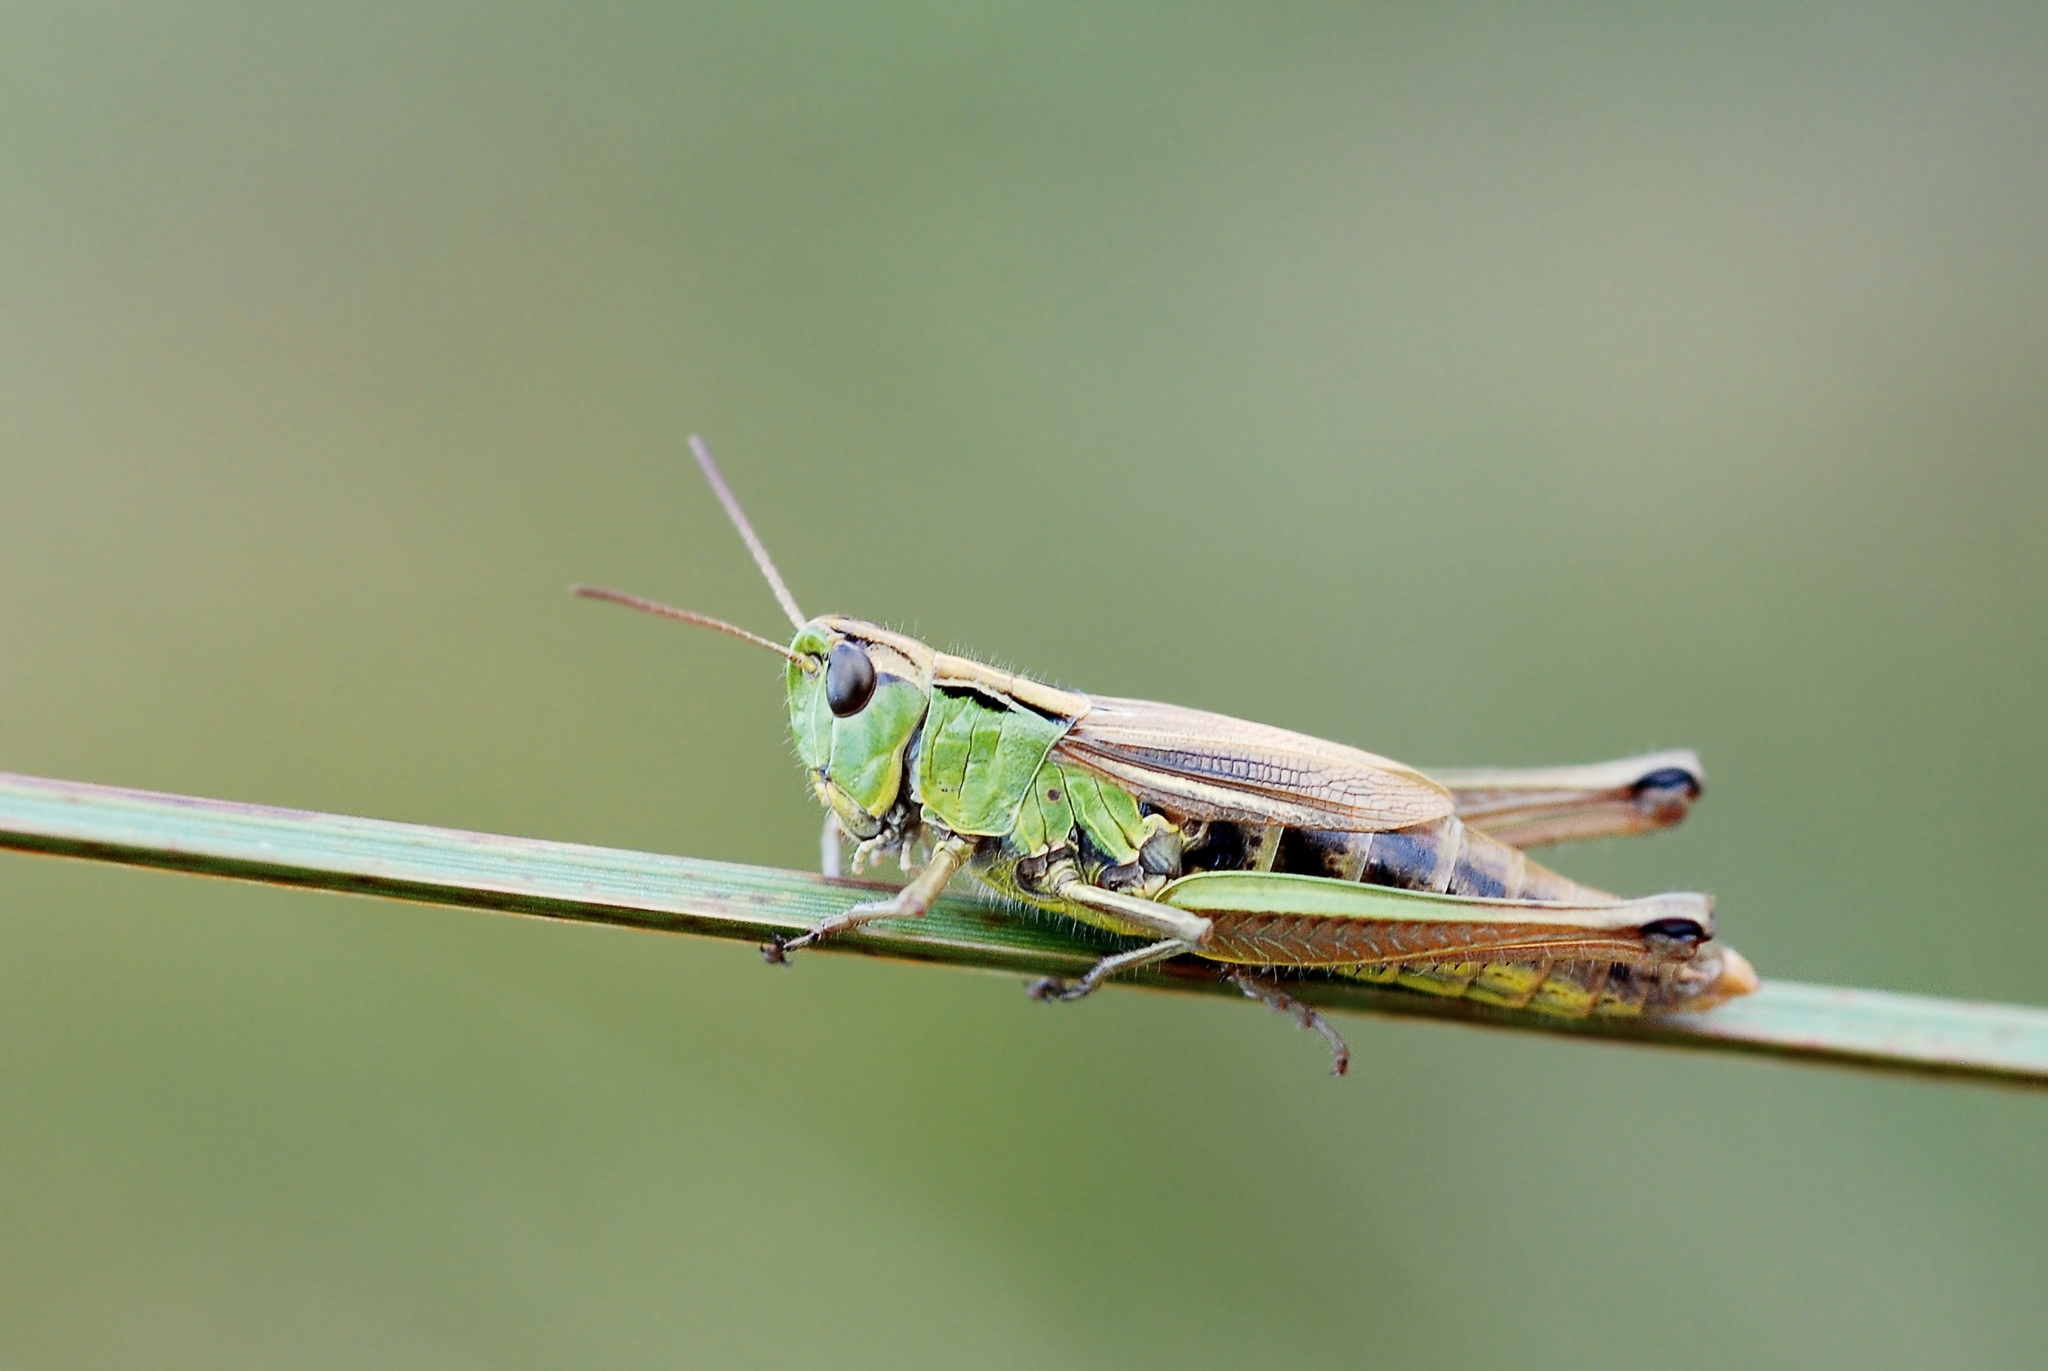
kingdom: Animalia
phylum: Arthropoda
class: Insecta
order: Orthoptera
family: Acrididae
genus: Pseudochorthippus
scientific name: Pseudochorthippus montanus
